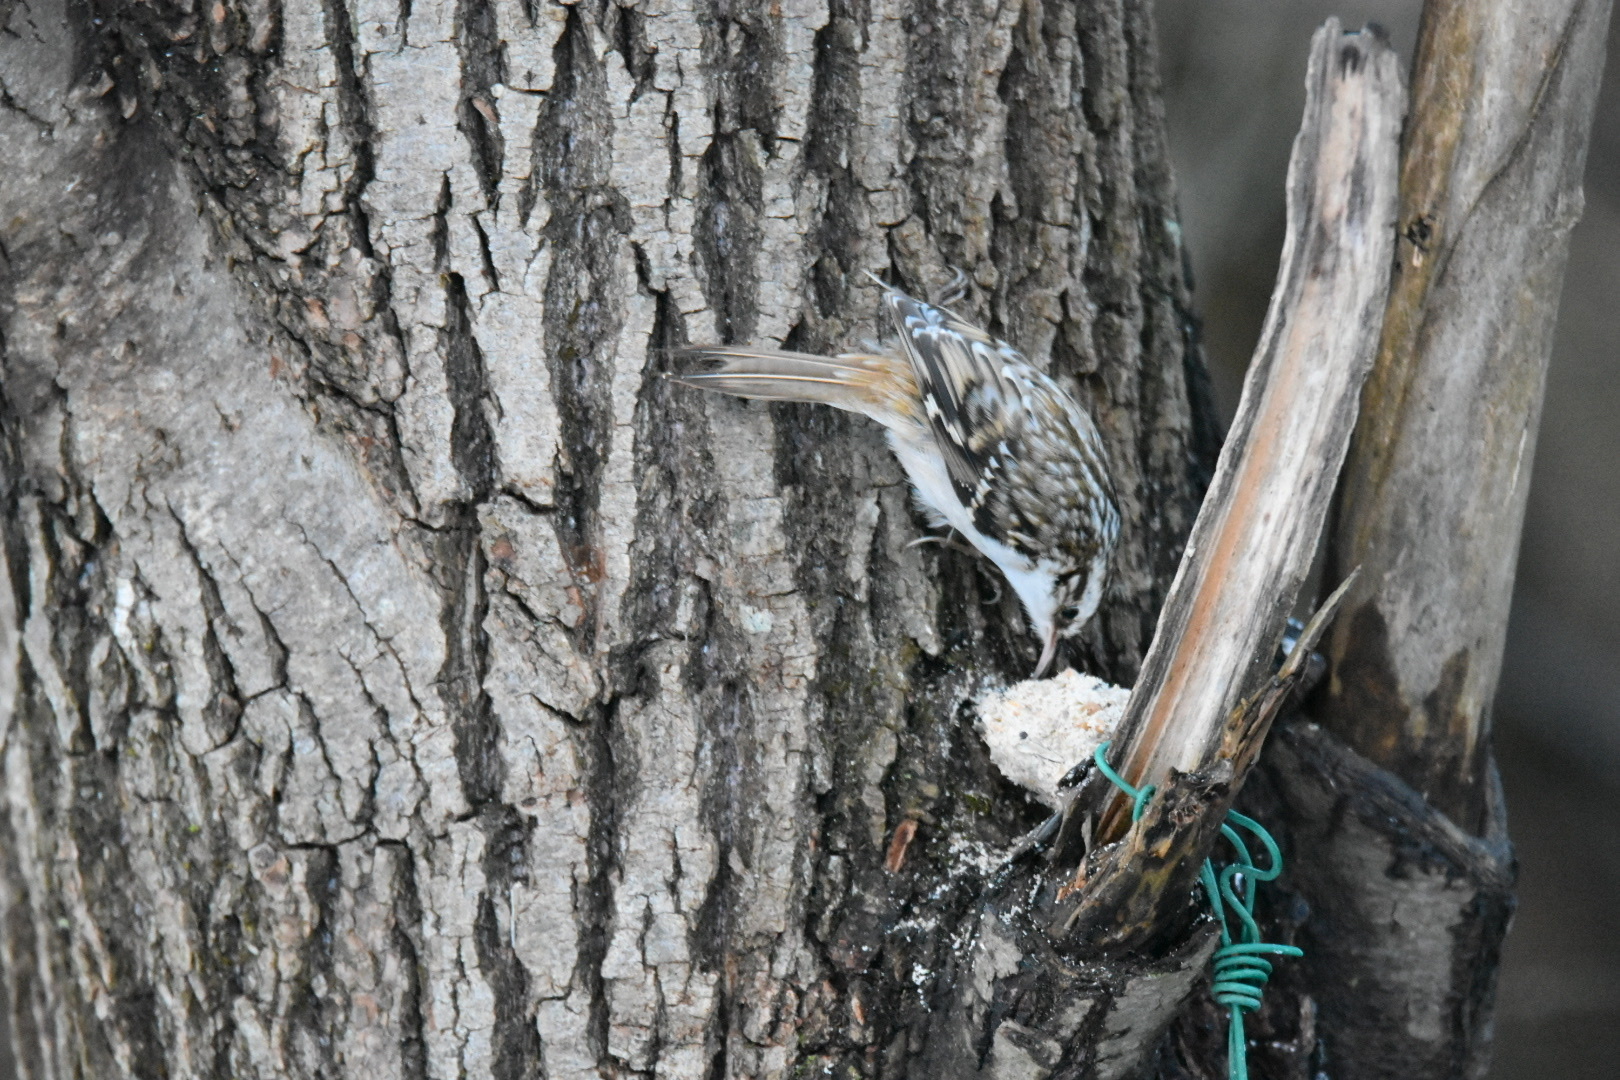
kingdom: Animalia
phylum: Chordata
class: Aves
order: Passeriformes
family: Certhiidae
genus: Certhia
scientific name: Certhia familiaris
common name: Eurasian treecreeper
